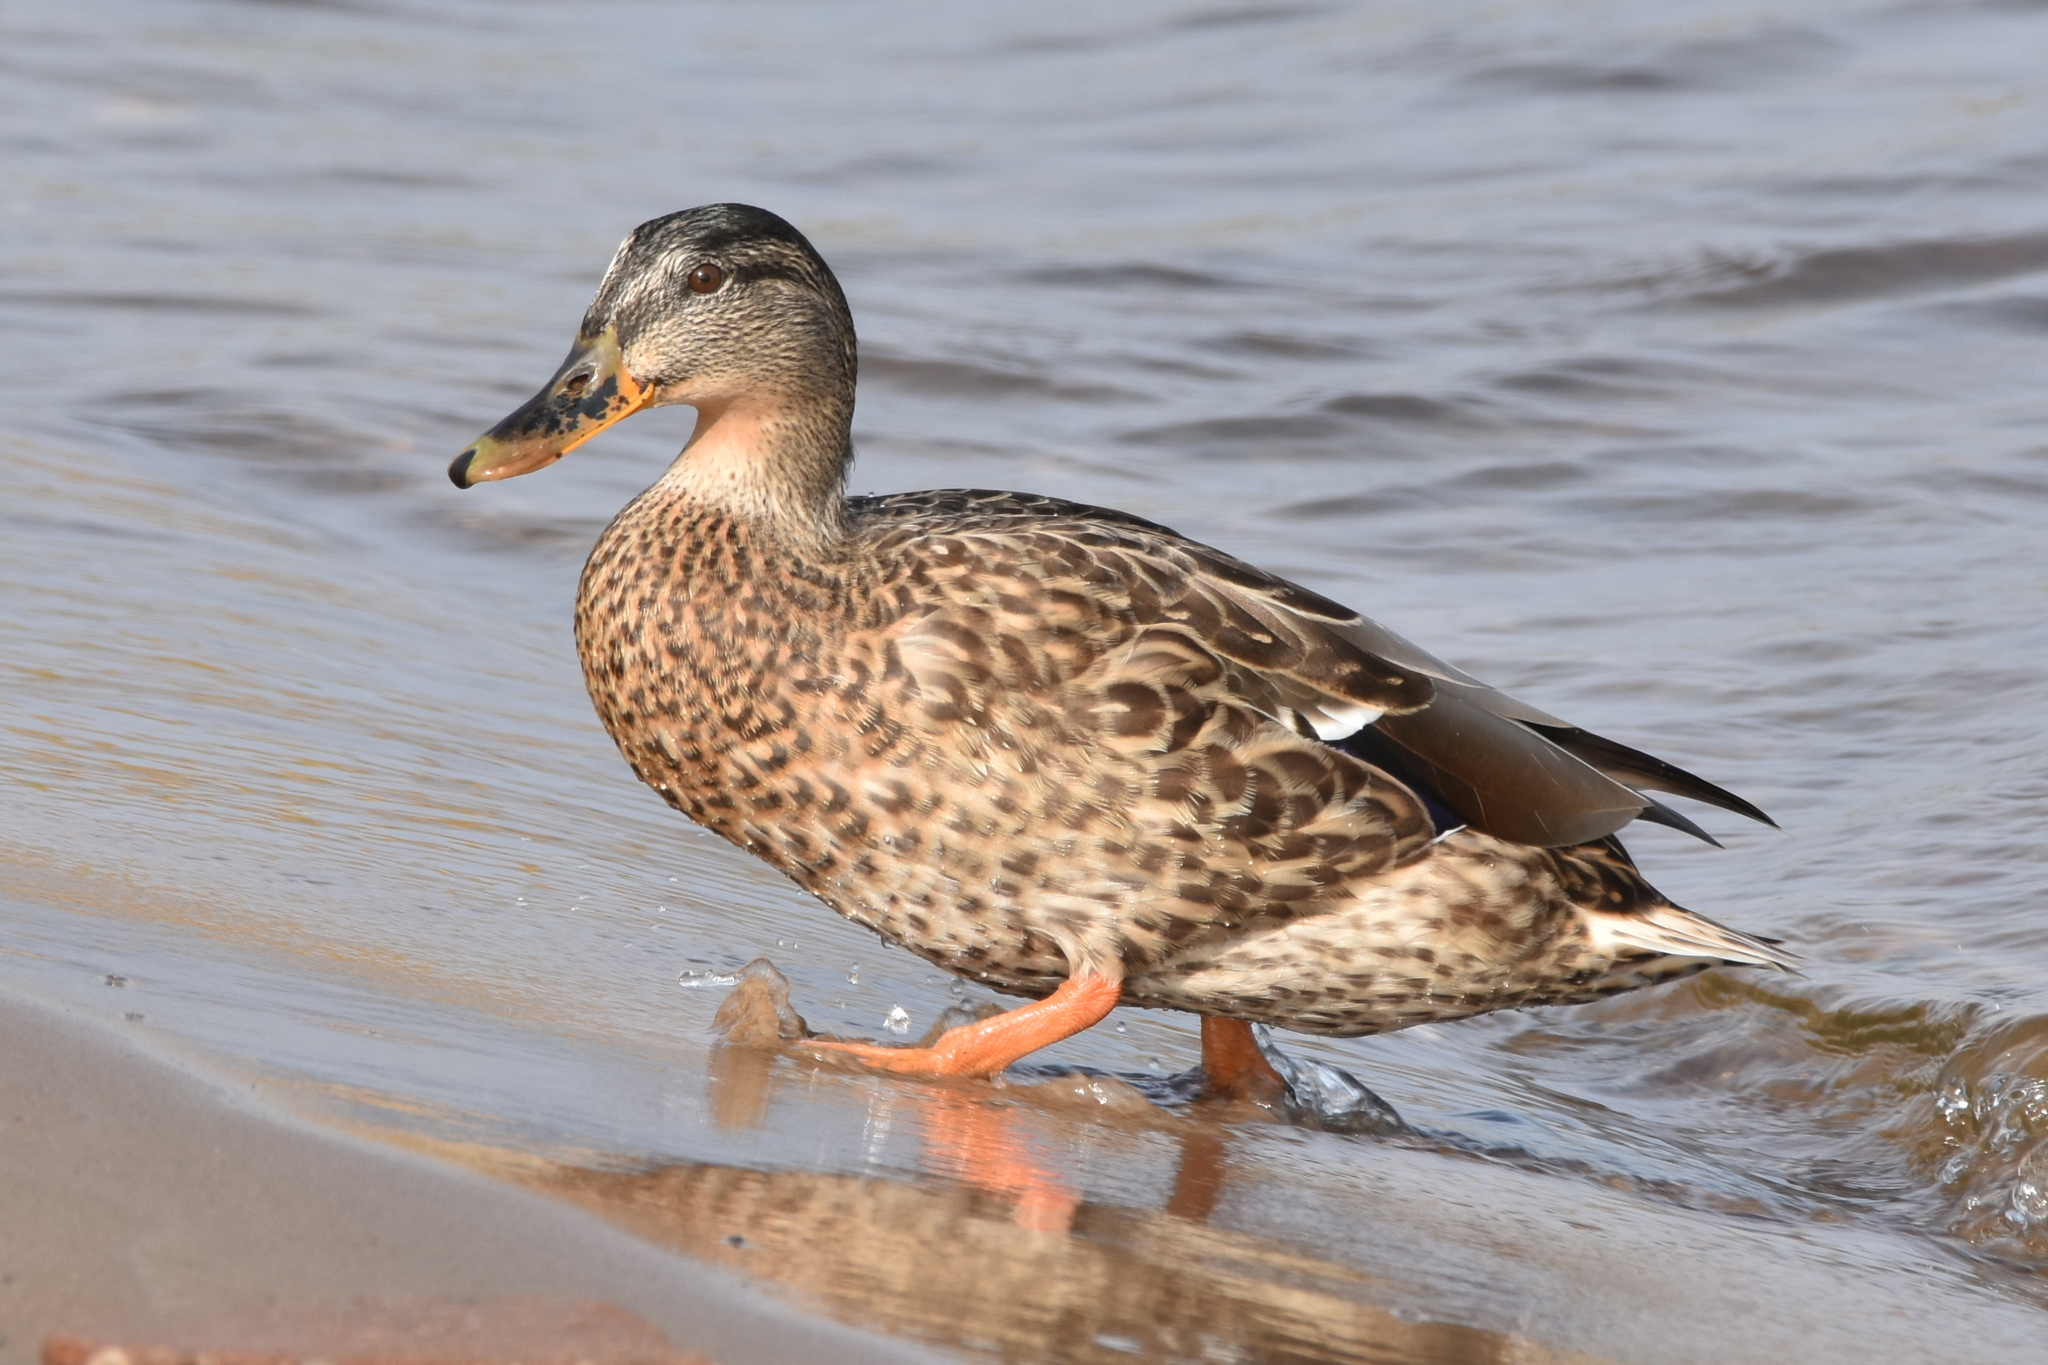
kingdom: Animalia
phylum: Chordata
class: Aves
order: Anseriformes
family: Anatidae
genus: Anas
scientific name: Anas platyrhynchos
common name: Mallard
